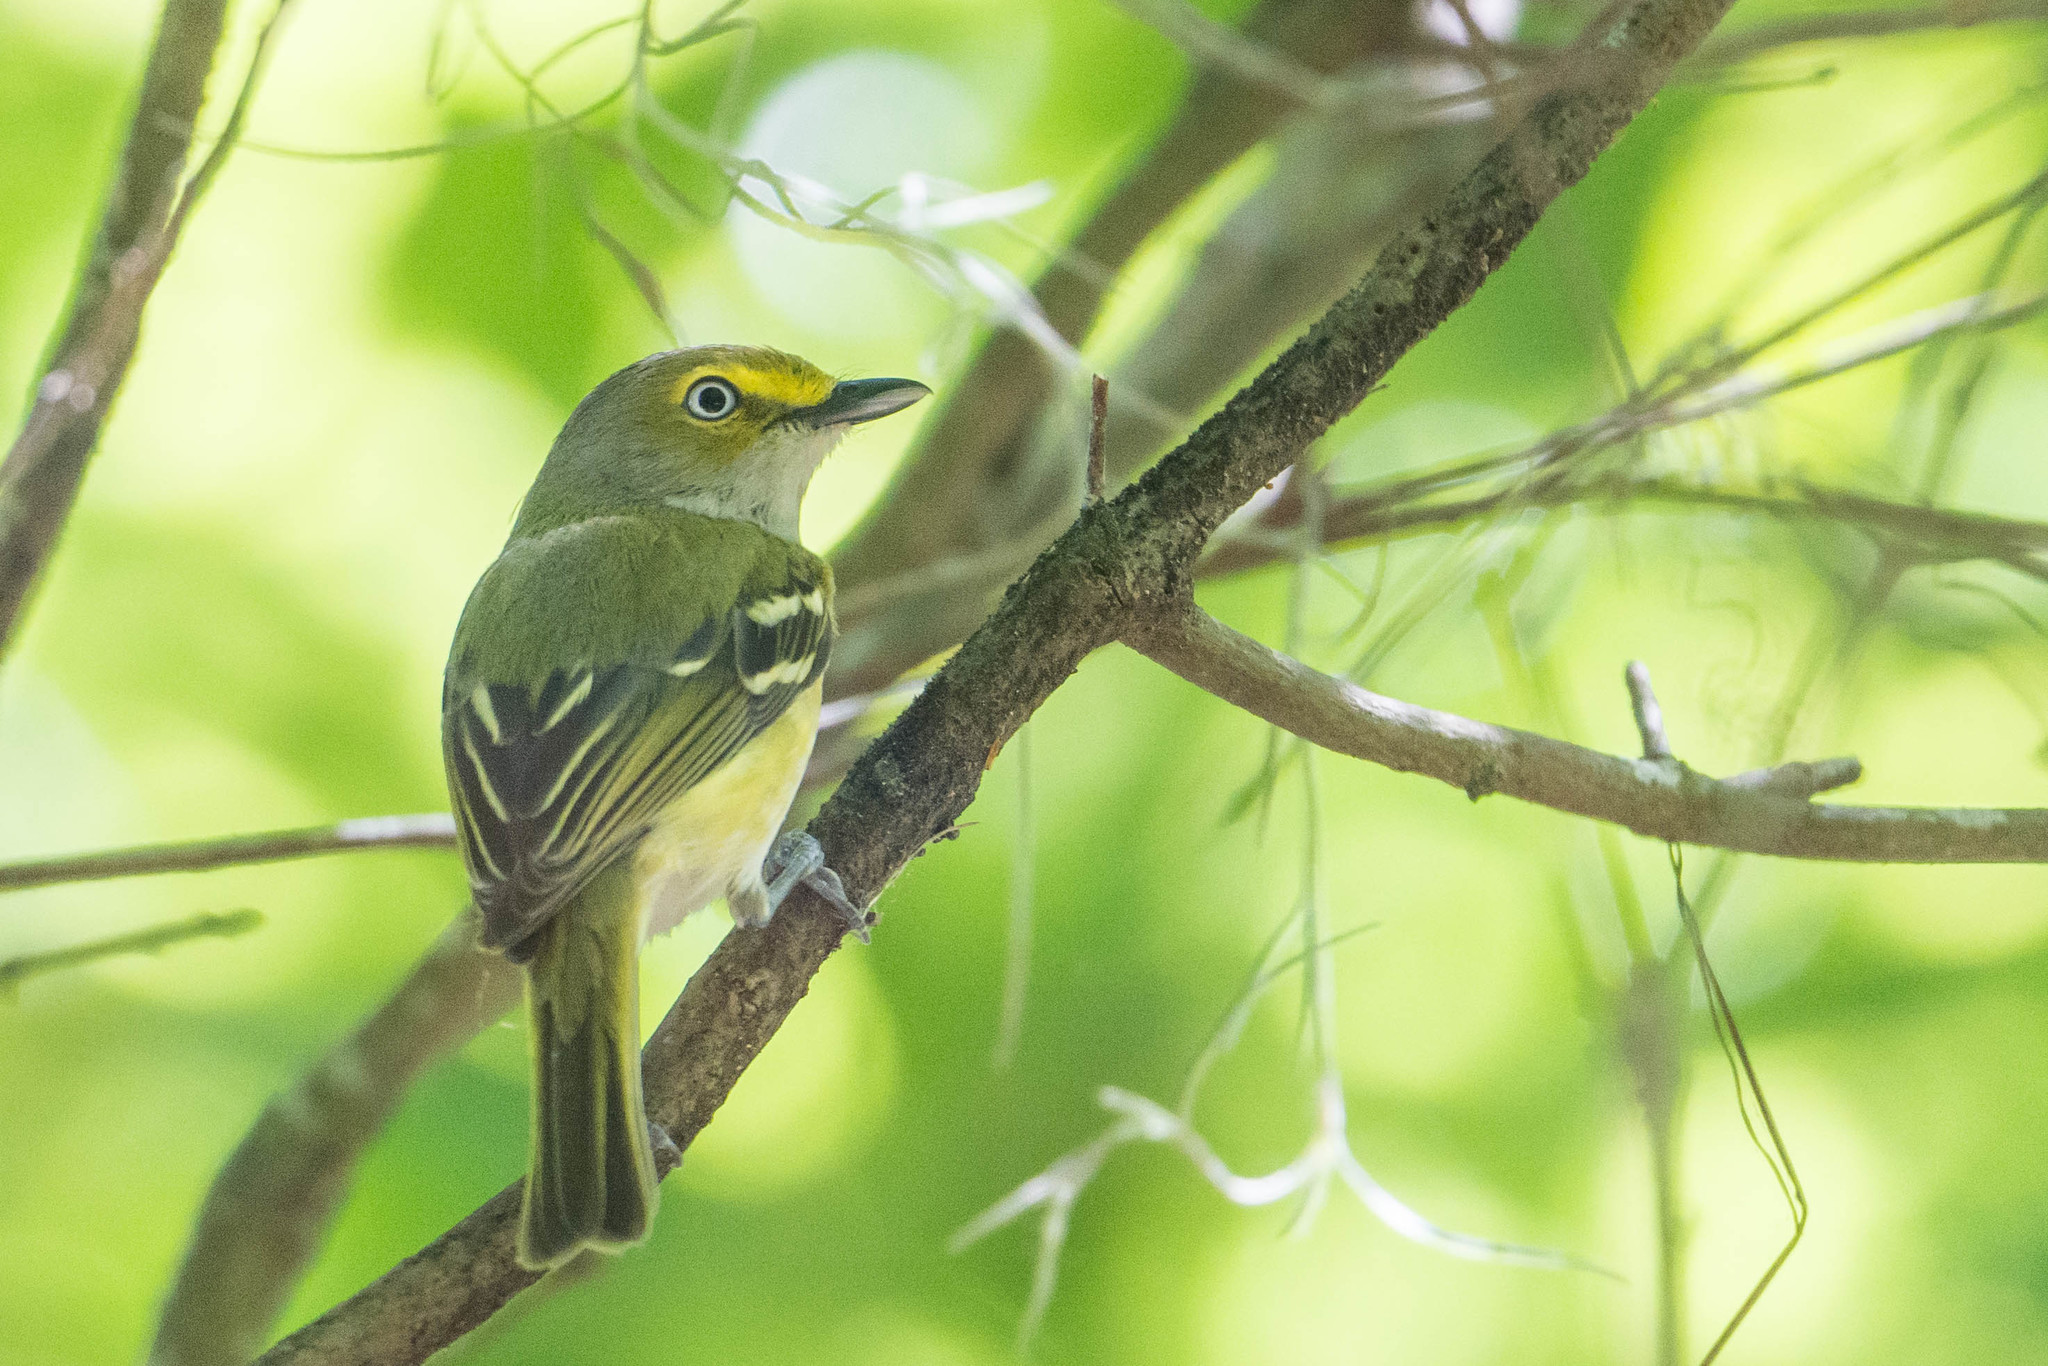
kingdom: Animalia
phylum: Chordata
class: Aves
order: Passeriformes
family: Vireonidae
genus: Vireo
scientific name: Vireo griseus
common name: White-eyed vireo
